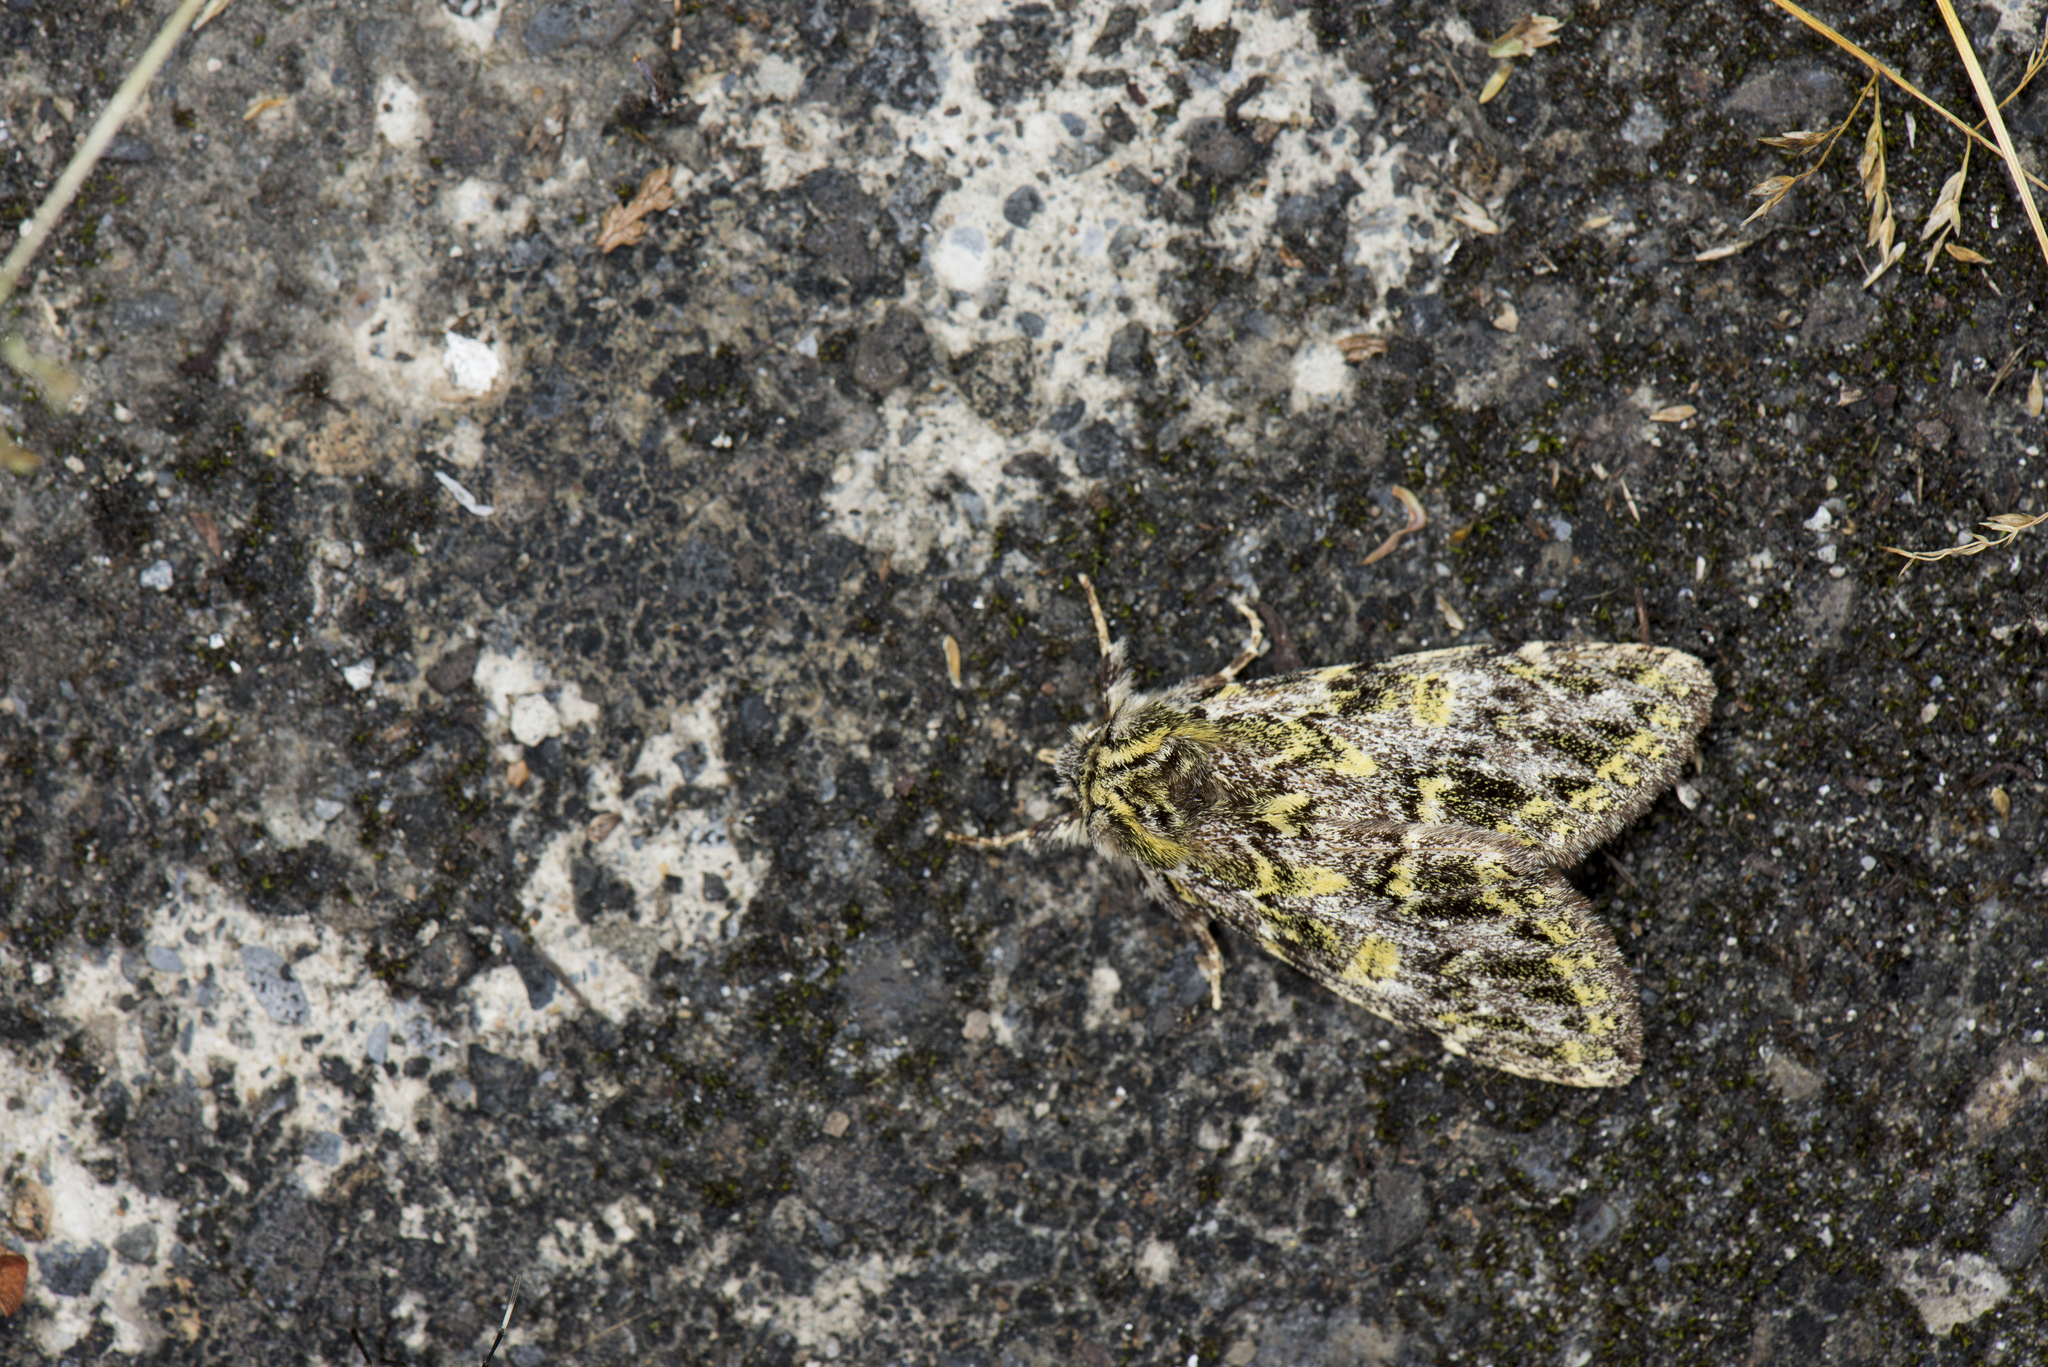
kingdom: Animalia
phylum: Arthropoda
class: Insecta
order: Lepidoptera
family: Notodontidae
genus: Pseudosomera
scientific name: Pseudosomera noctuiformis
